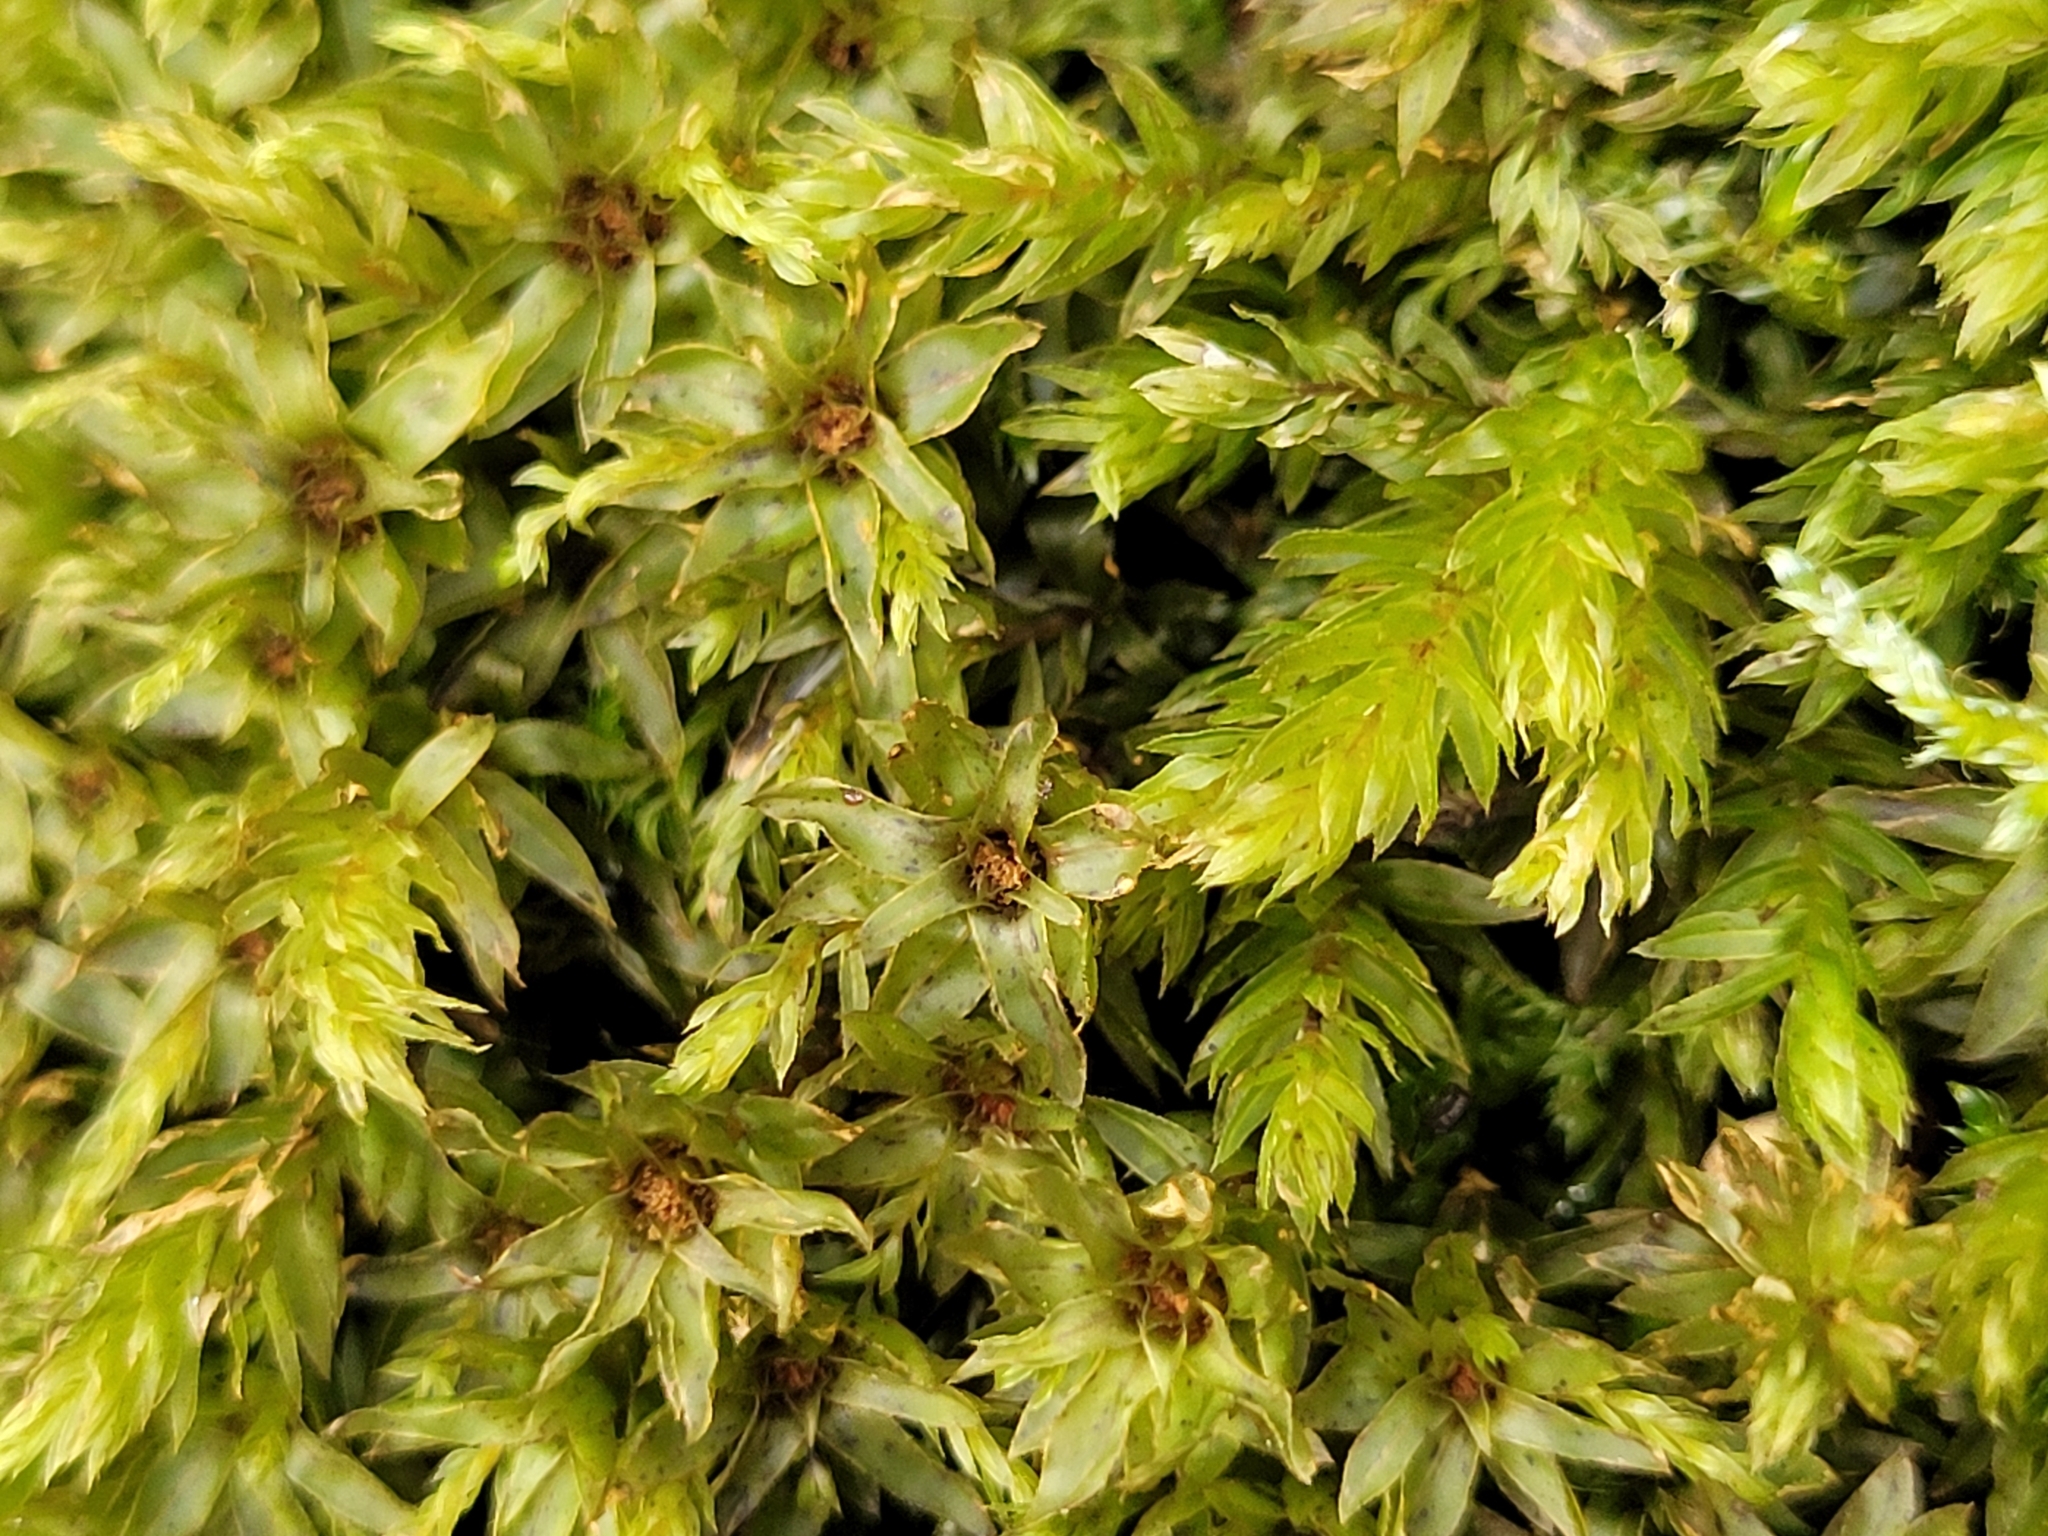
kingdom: Plantae
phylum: Bryophyta
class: Bryopsida
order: Bryales
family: Mniaceae
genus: Mnium
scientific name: Mnium hornum
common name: Swan's-neck leafy moss
